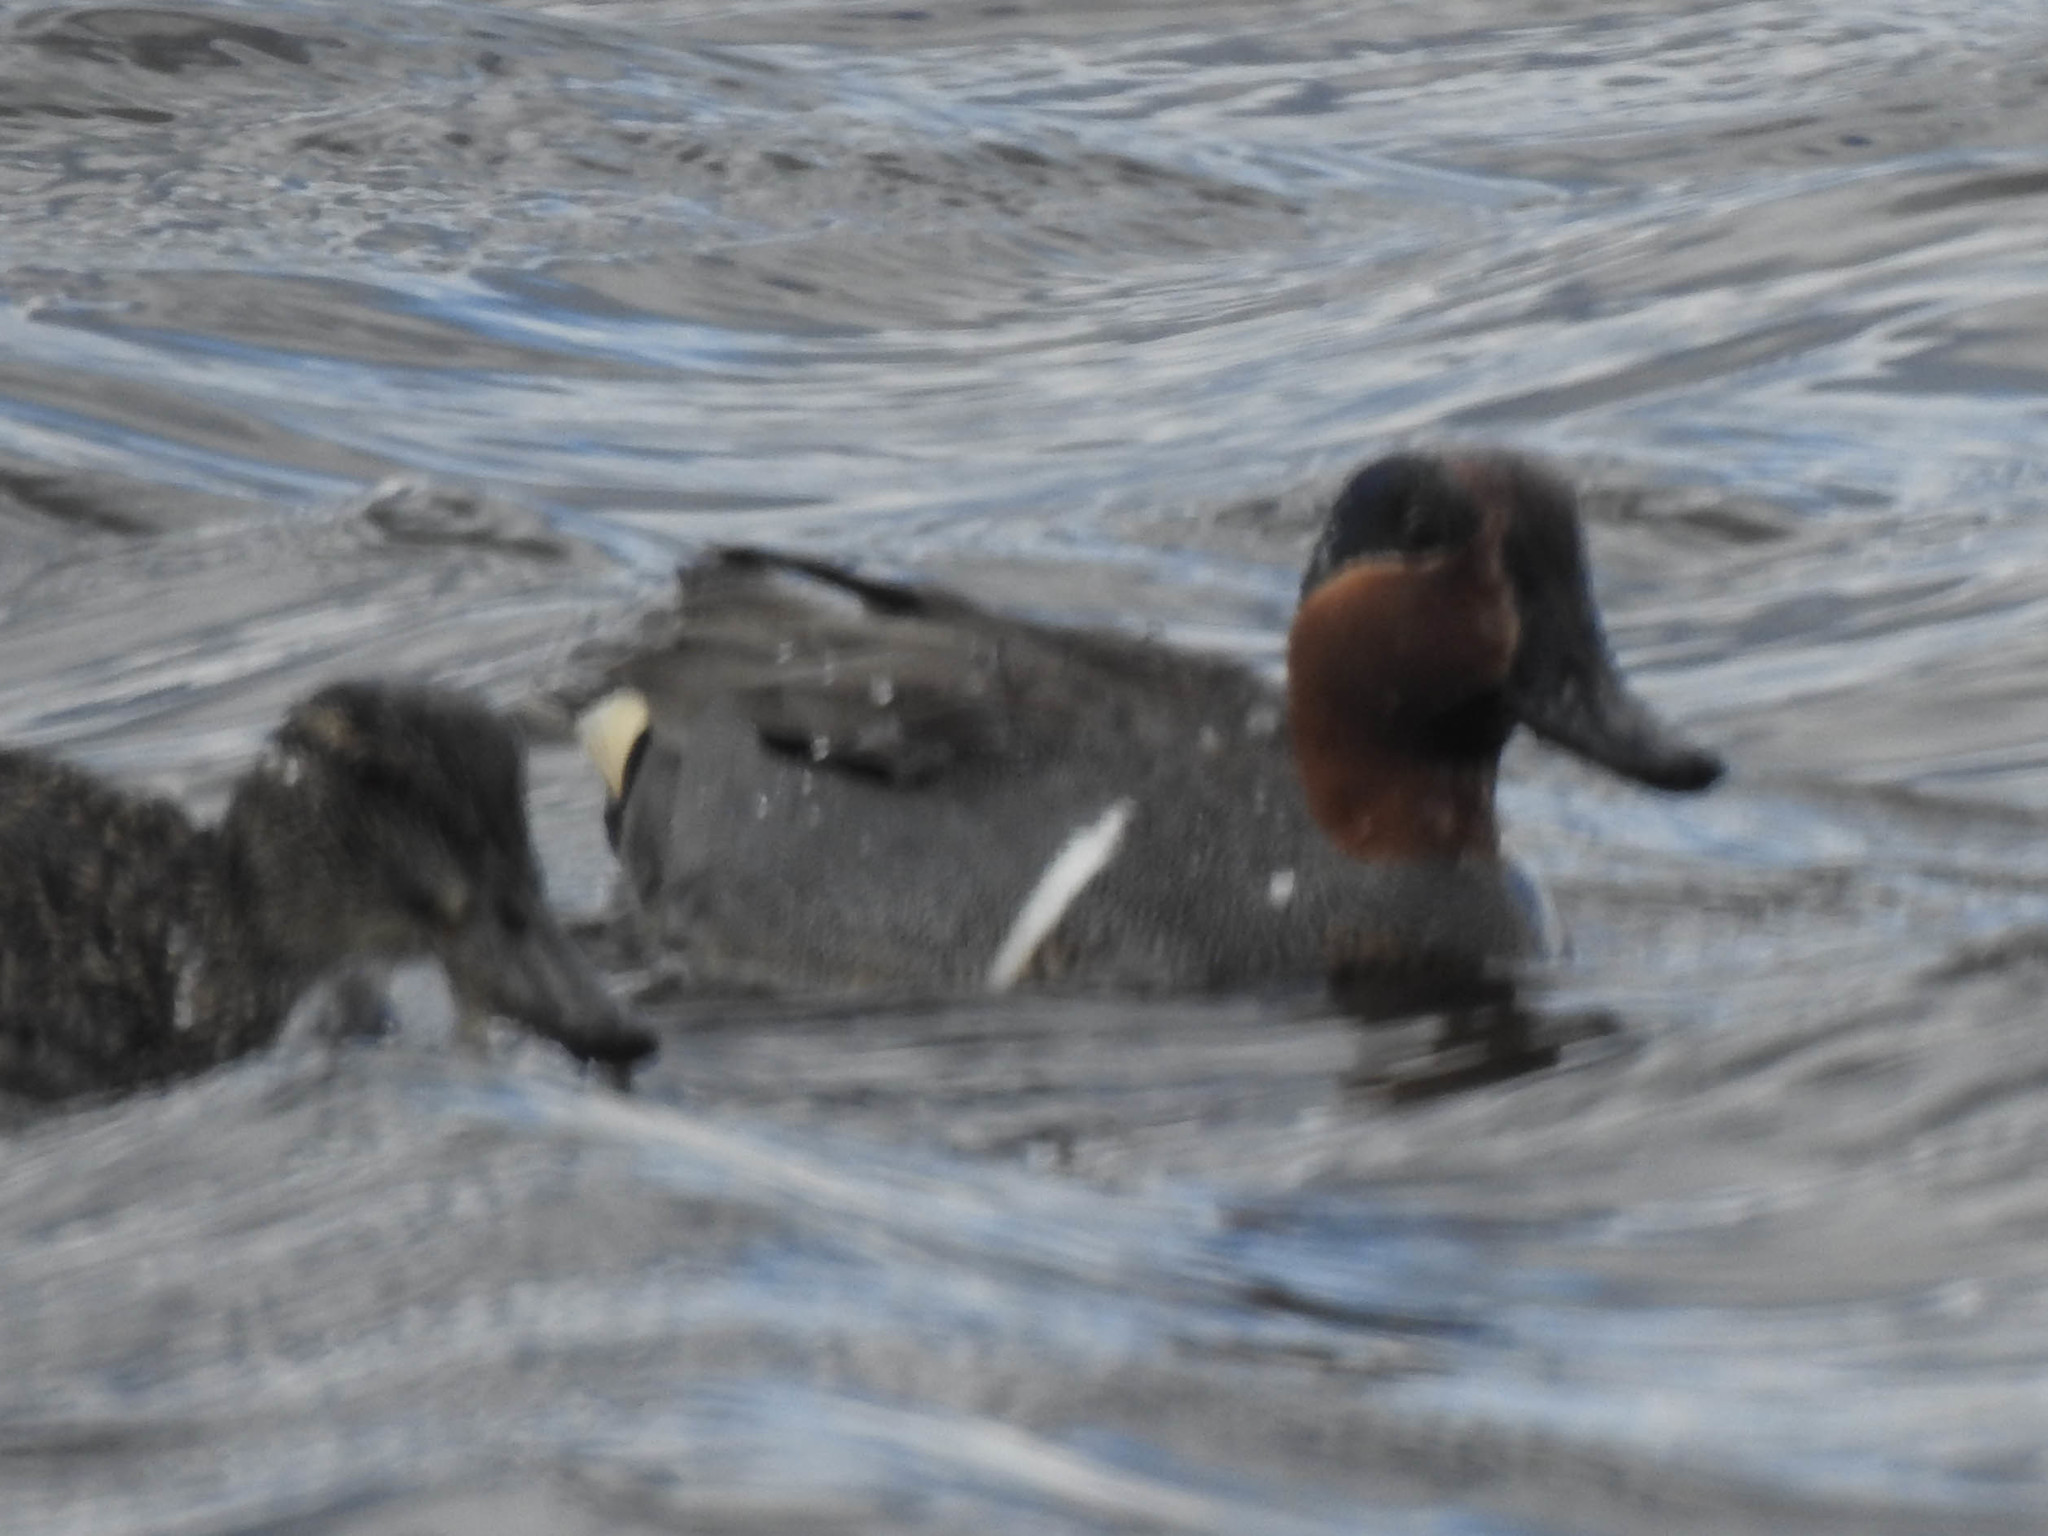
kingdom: Animalia
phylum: Chordata
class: Aves
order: Anseriformes
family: Anatidae
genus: Anas
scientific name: Anas crecca
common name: Eurasian teal
